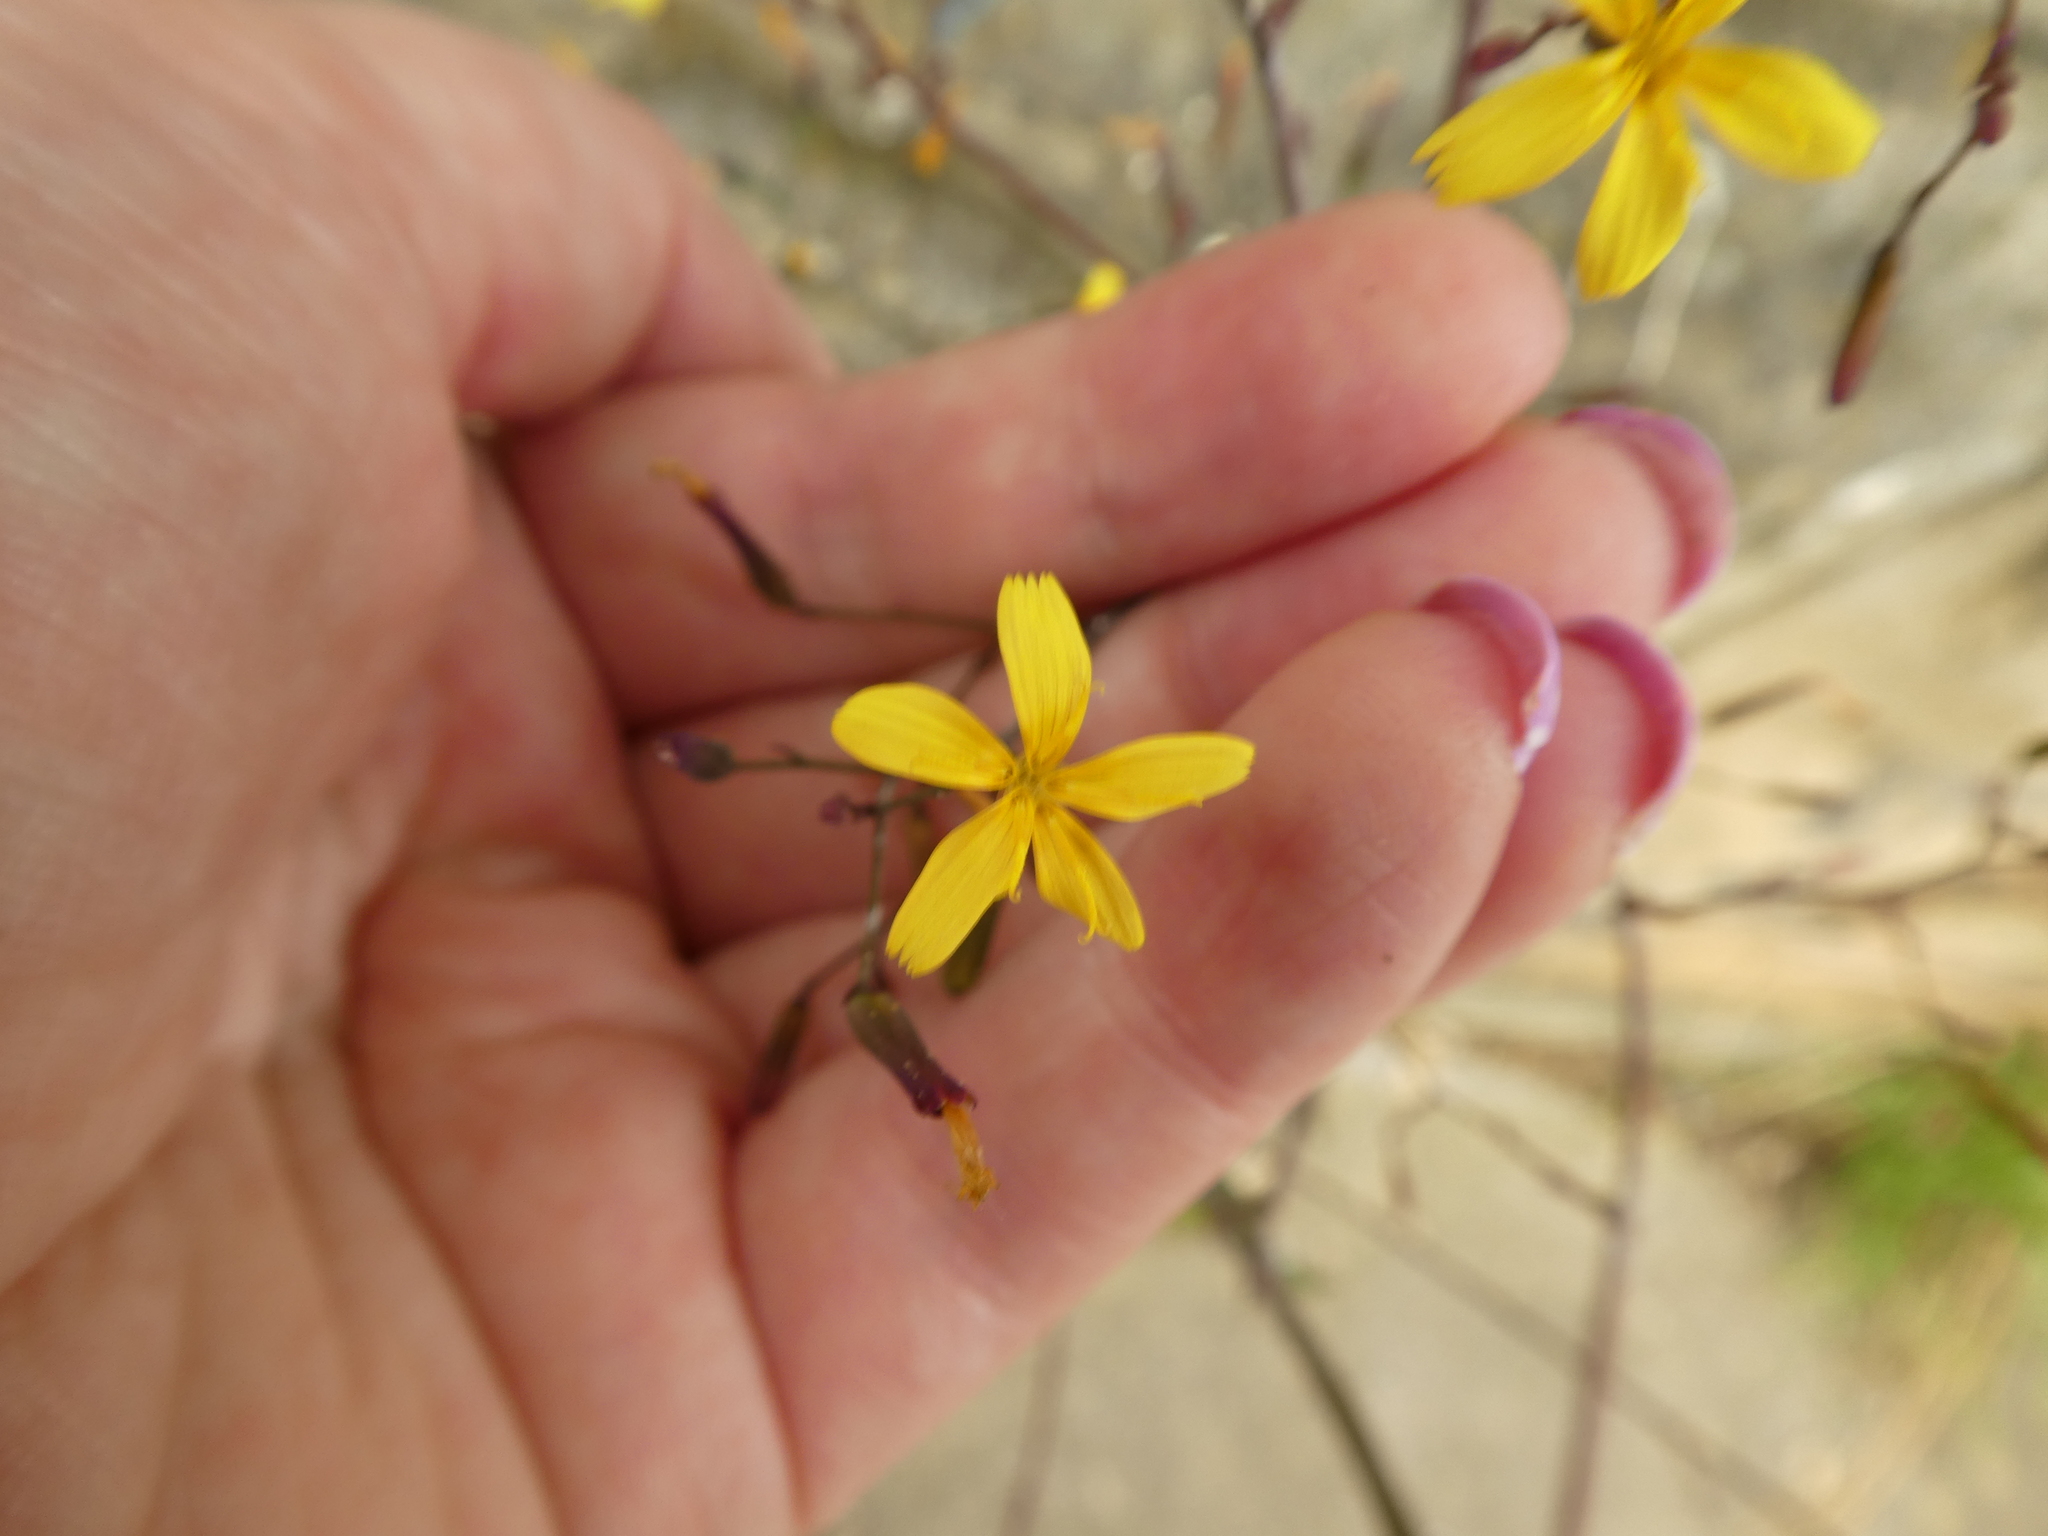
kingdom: Plantae
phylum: Tracheophyta
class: Magnoliopsida
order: Asterales
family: Asteraceae
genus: Mycelis
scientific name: Mycelis muralis
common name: Wall lettuce
